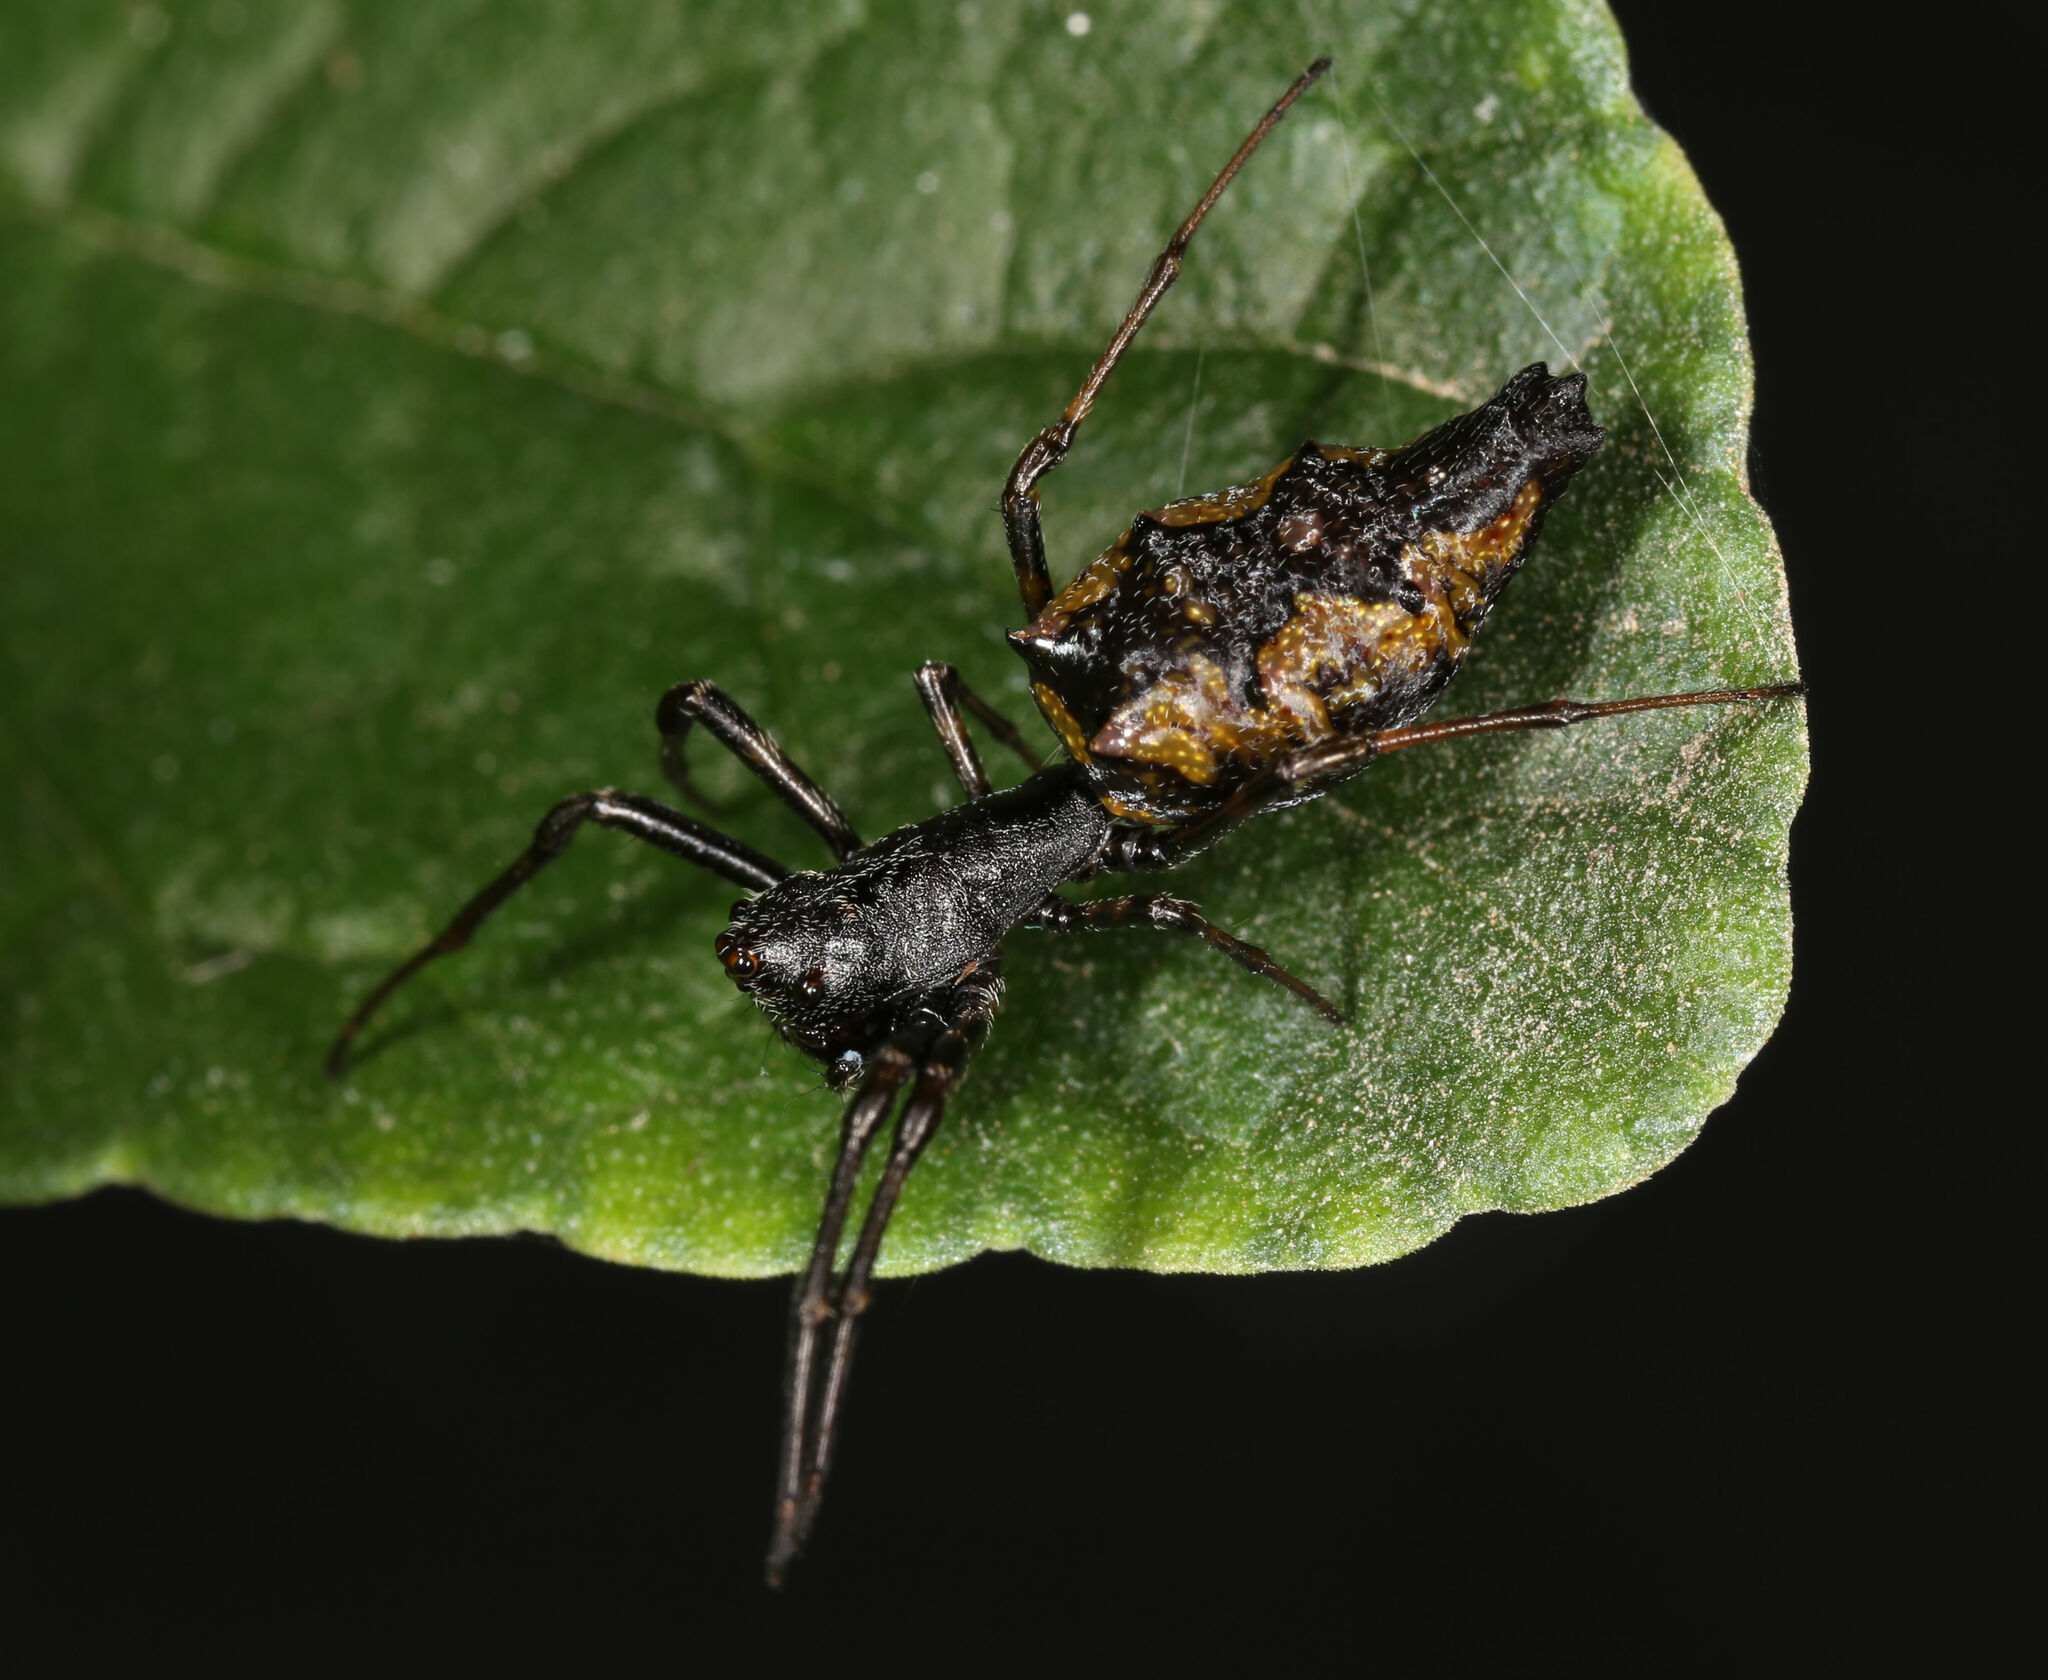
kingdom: Animalia
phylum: Arthropoda
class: Arachnida
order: Araneae
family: Araneidae
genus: Edricus
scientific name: Edricus productus
